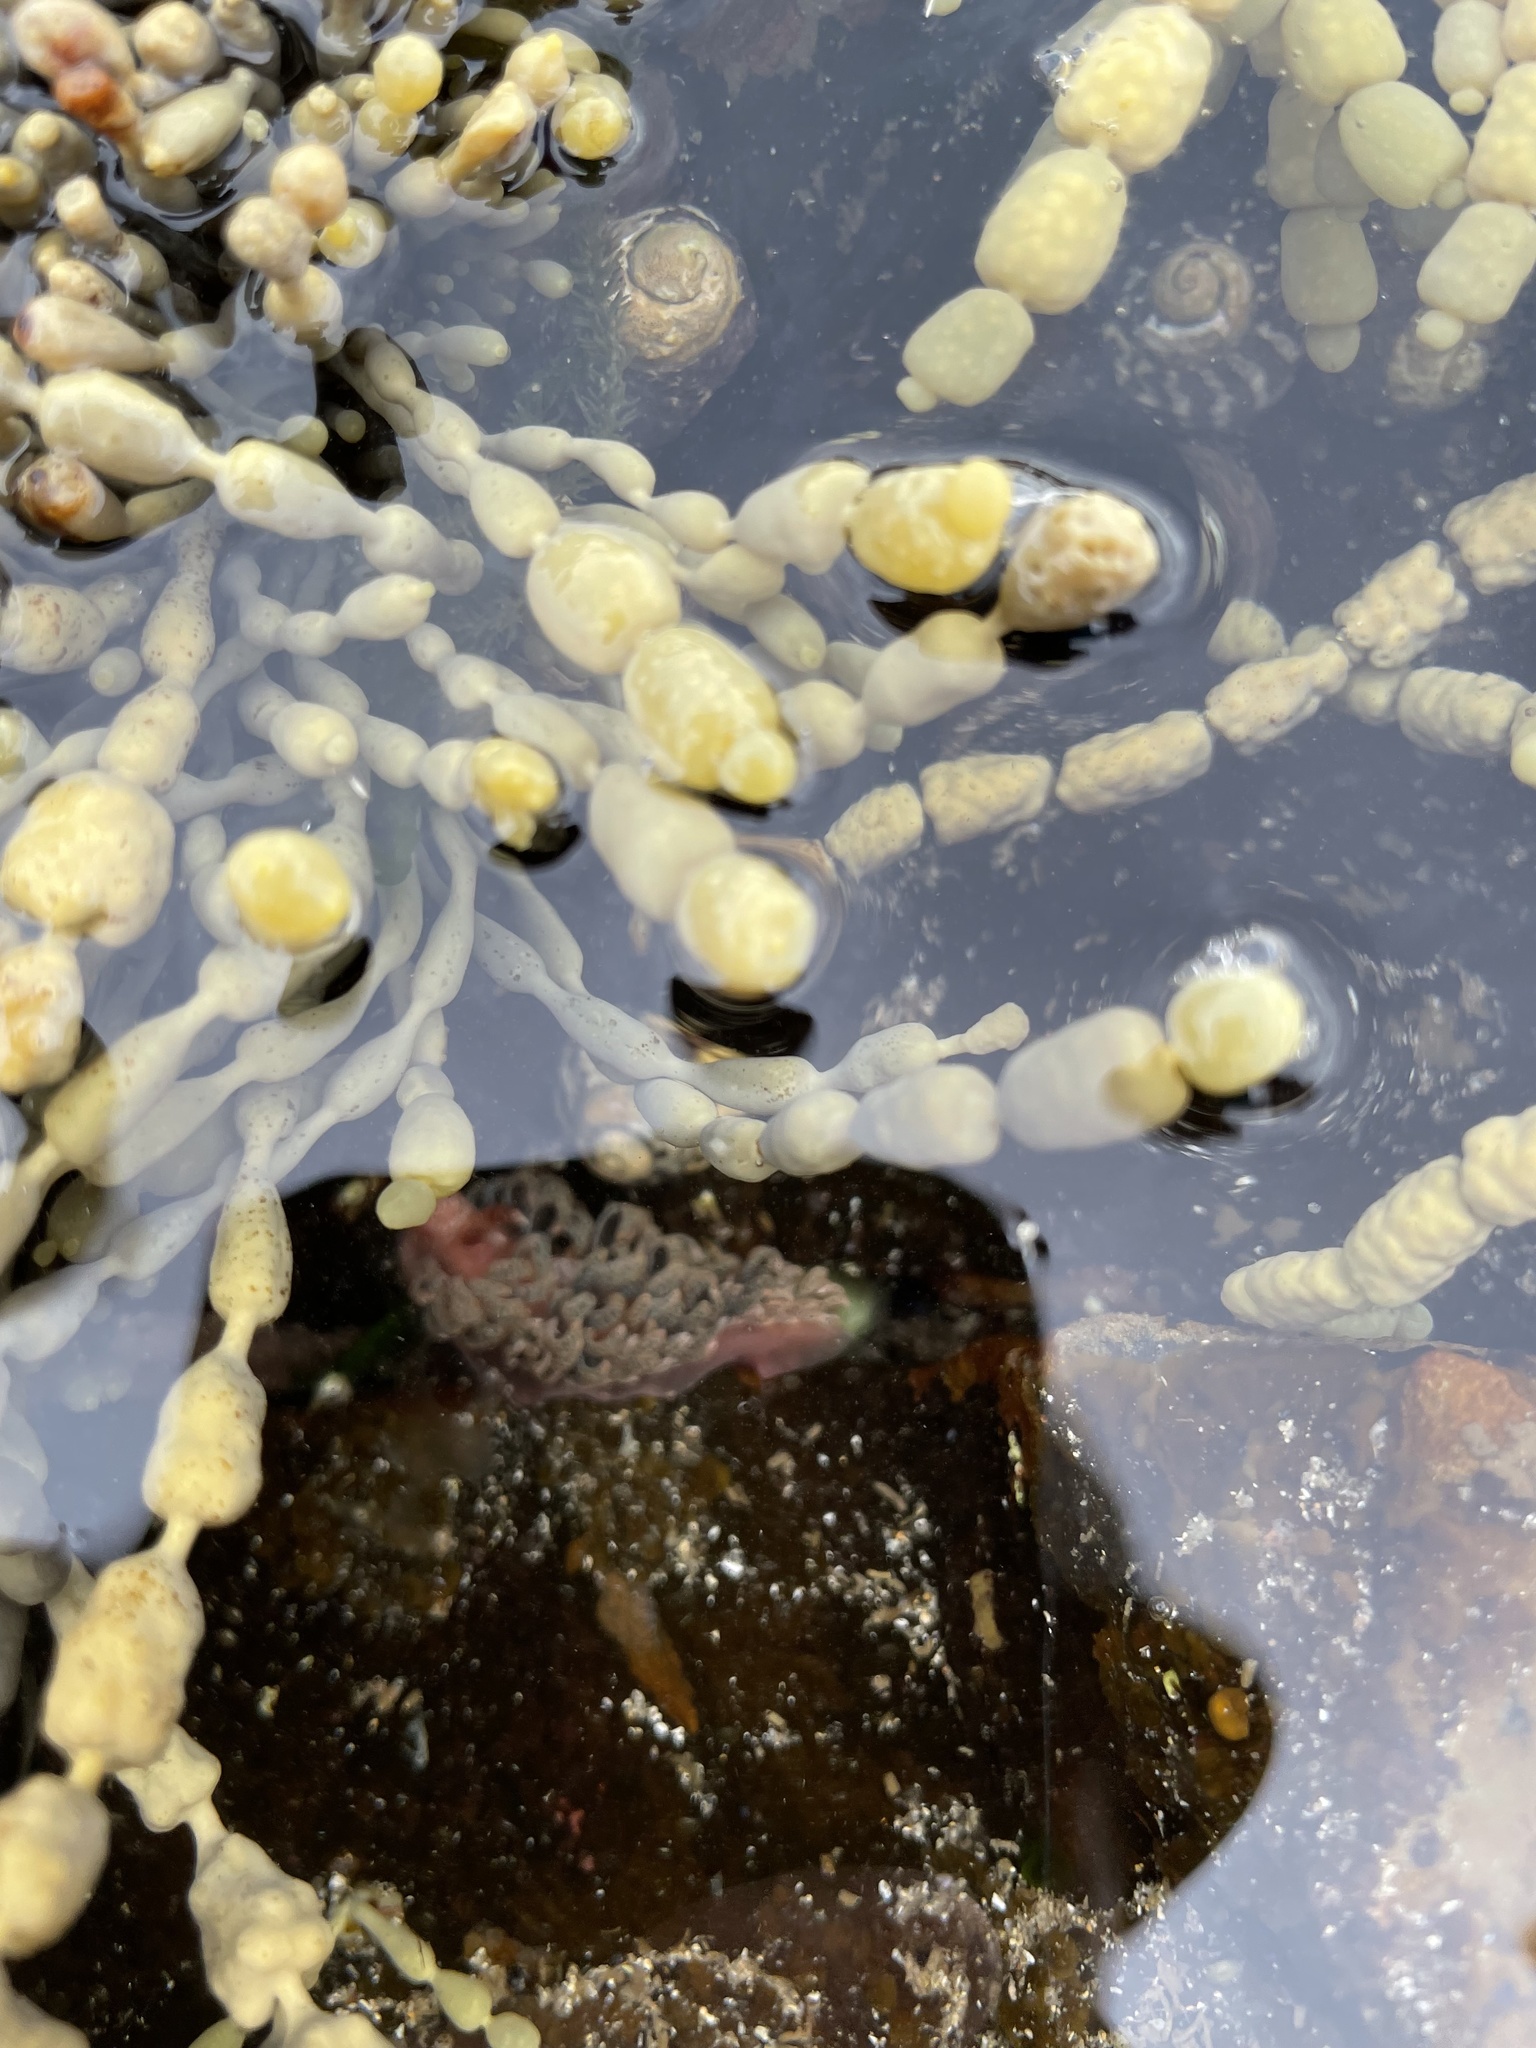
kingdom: Animalia
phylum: Mollusca
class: Gastropoda
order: Nudibranchia
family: Aeolidiidae
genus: Spurilla
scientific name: Spurilla braziliana
